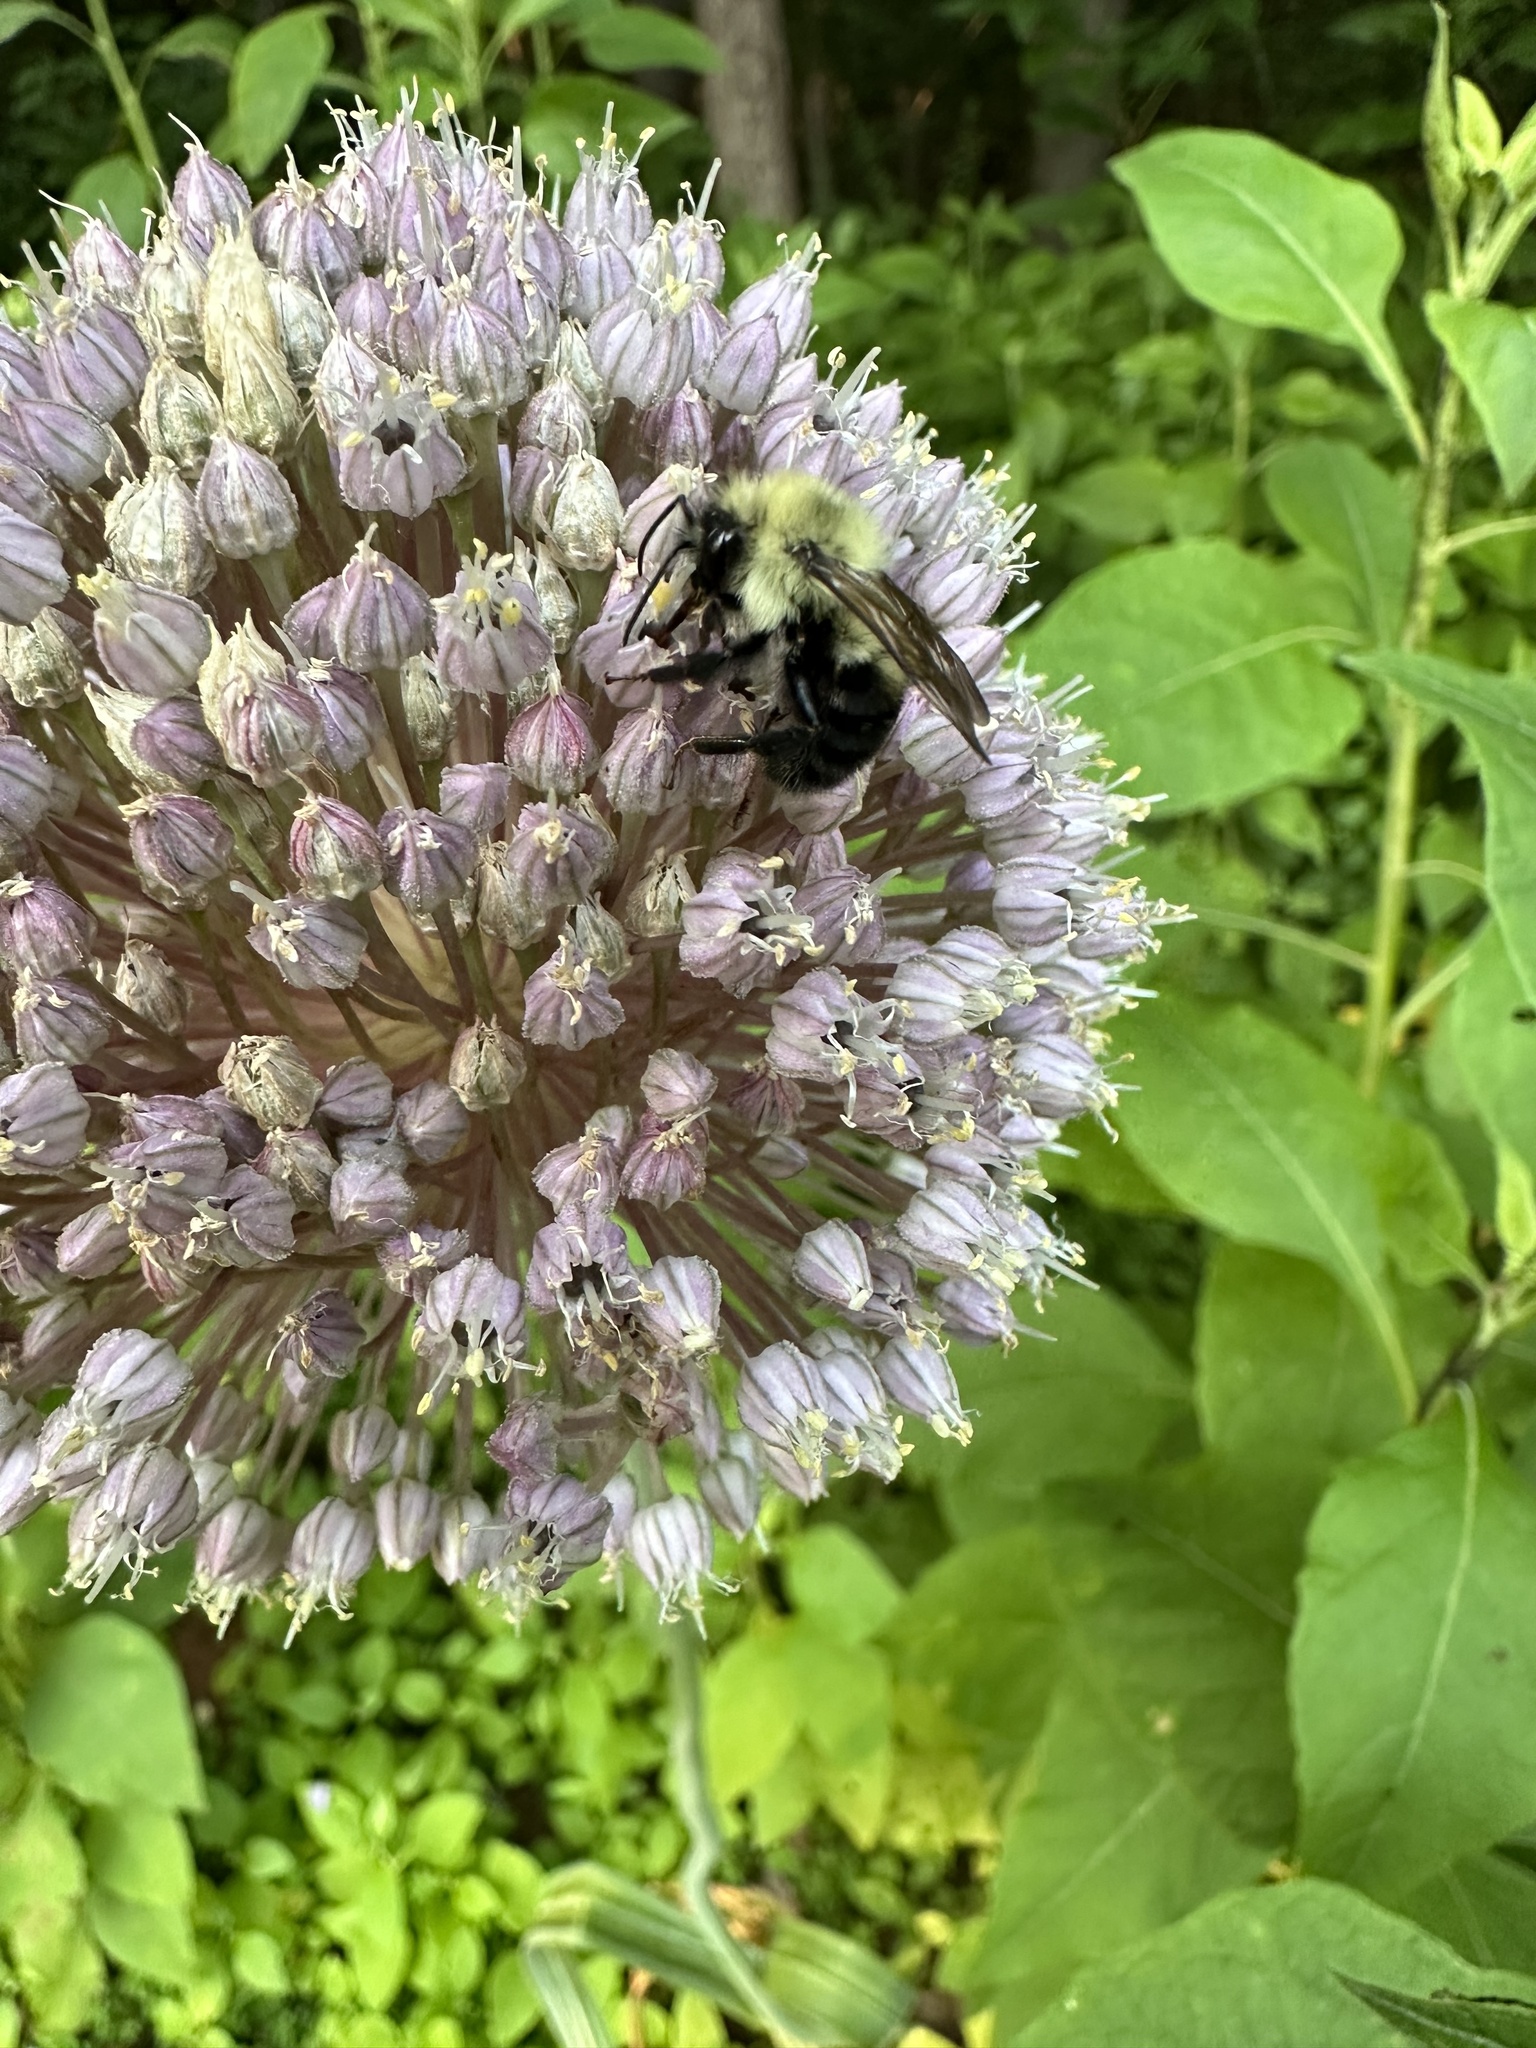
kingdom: Animalia
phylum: Arthropoda
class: Insecta
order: Hymenoptera
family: Apidae
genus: Bombus
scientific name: Bombus bimaculatus
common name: Two-spotted bumble bee
